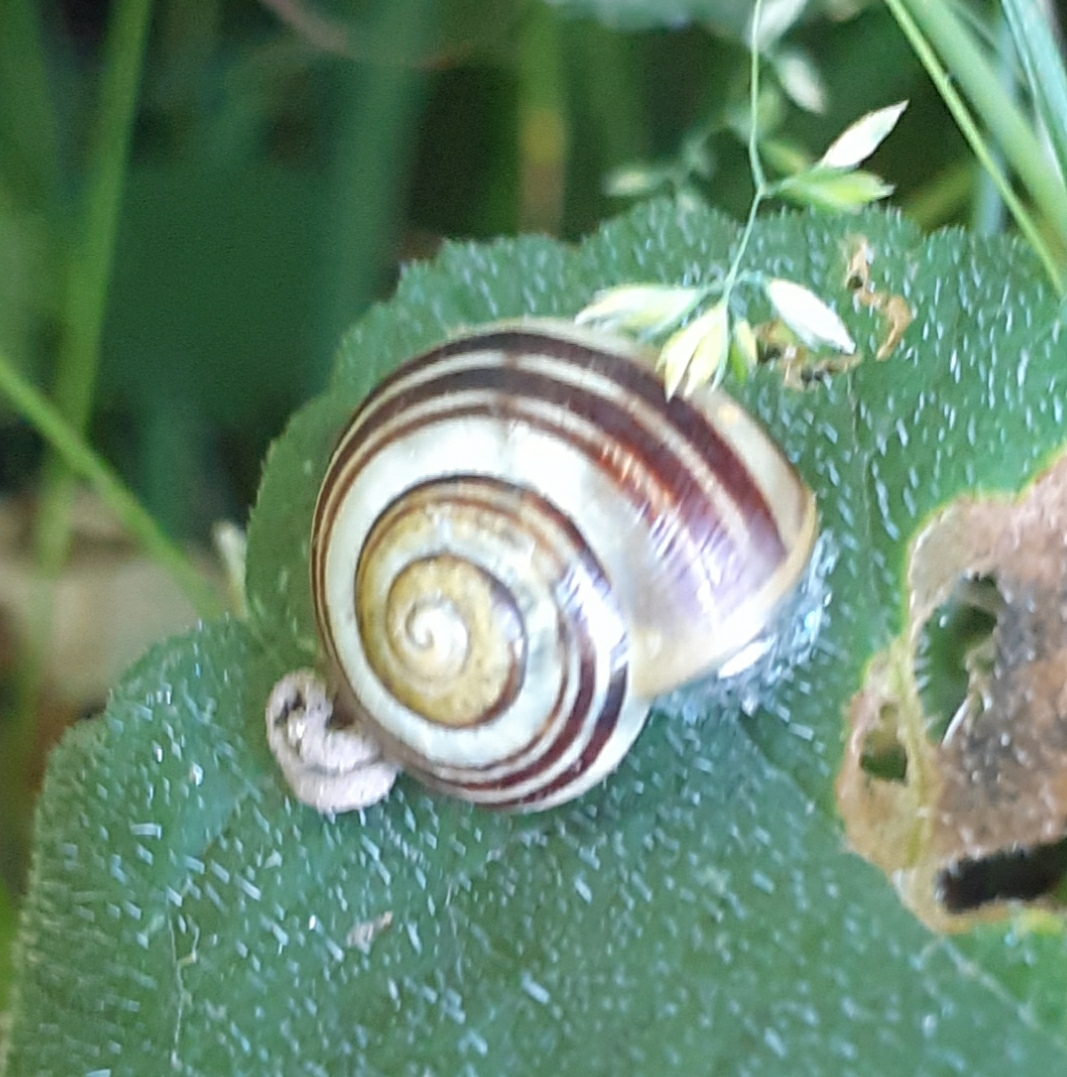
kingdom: Animalia
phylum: Mollusca
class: Gastropoda
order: Stylommatophora
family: Helicidae
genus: Cepaea
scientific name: Cepaea
